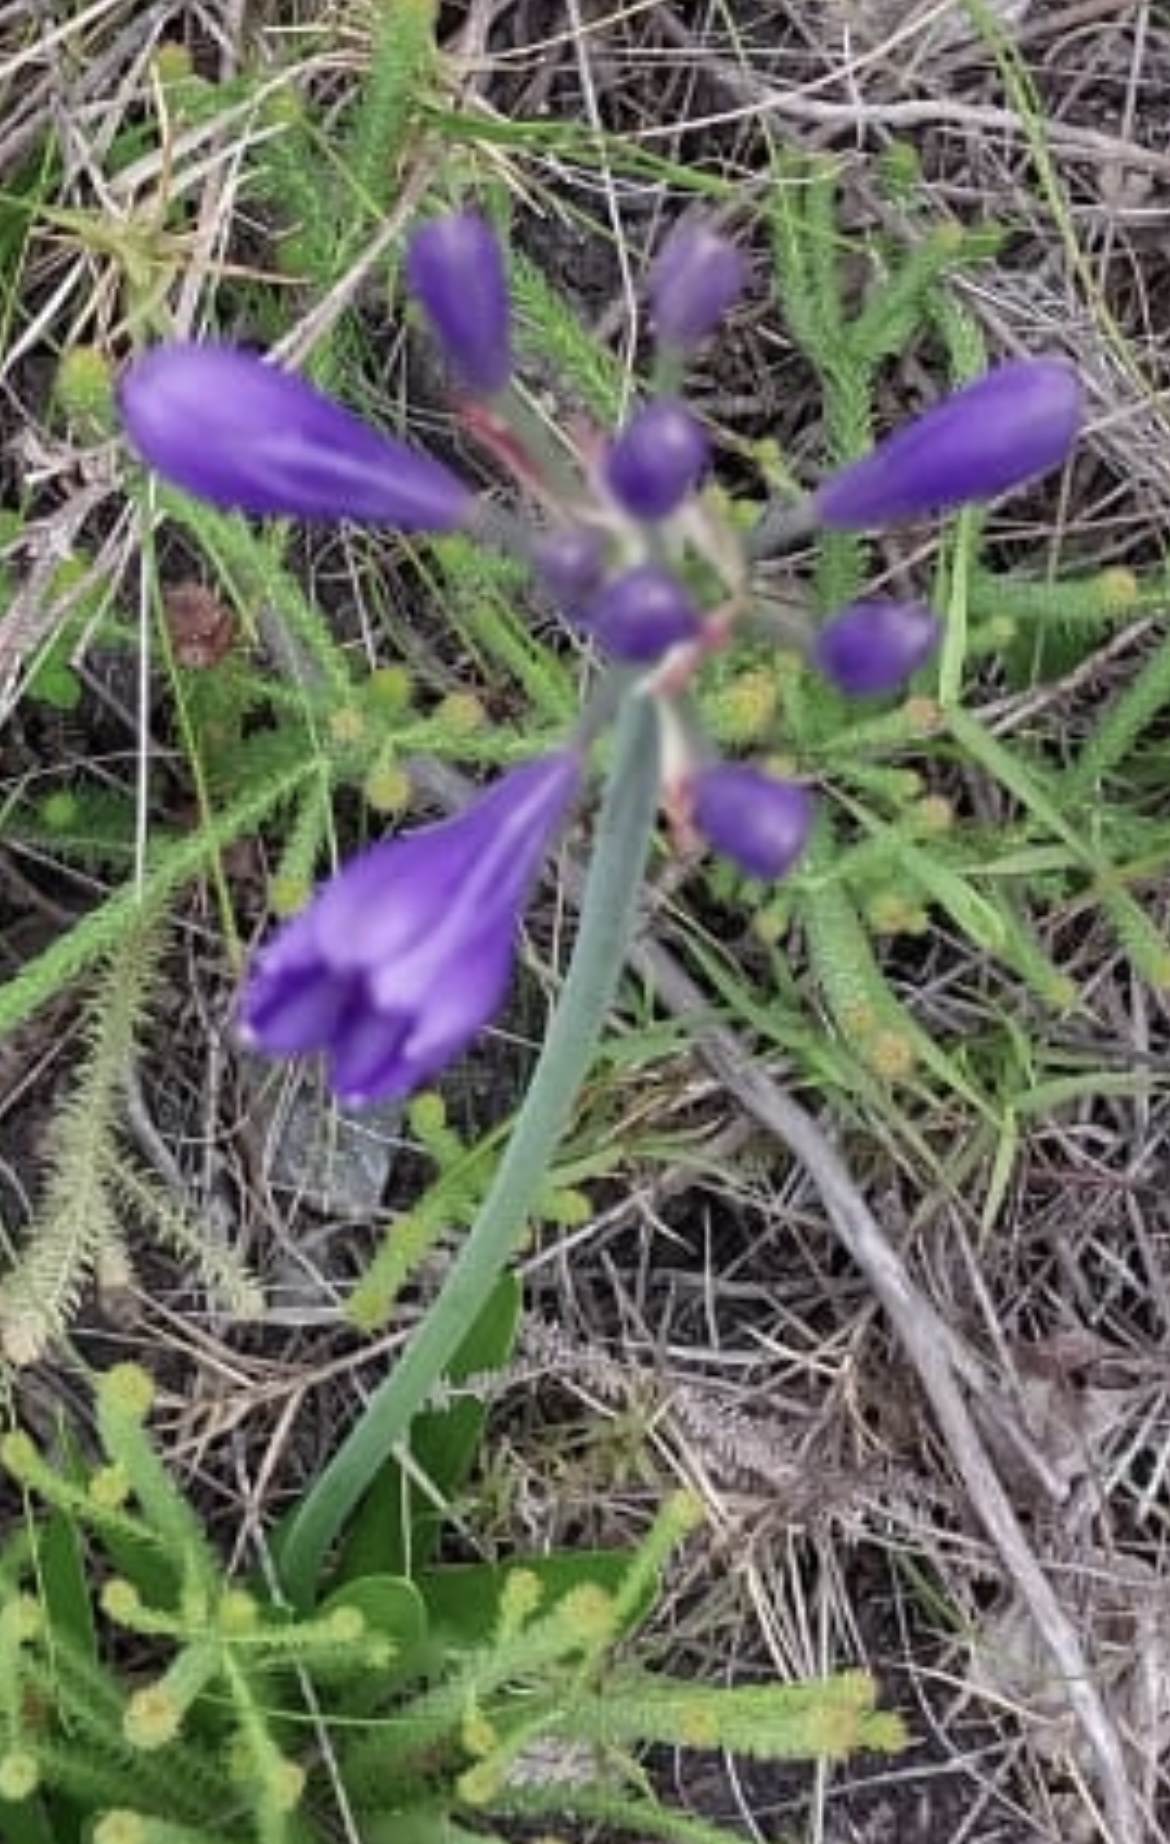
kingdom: Plantae
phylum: Tracheophyta
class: Liliopsida
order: Asparagales
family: Amaryllidaceae
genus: Agapanthus
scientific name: Agapanthus africanus
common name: Lily-of-the-nile
